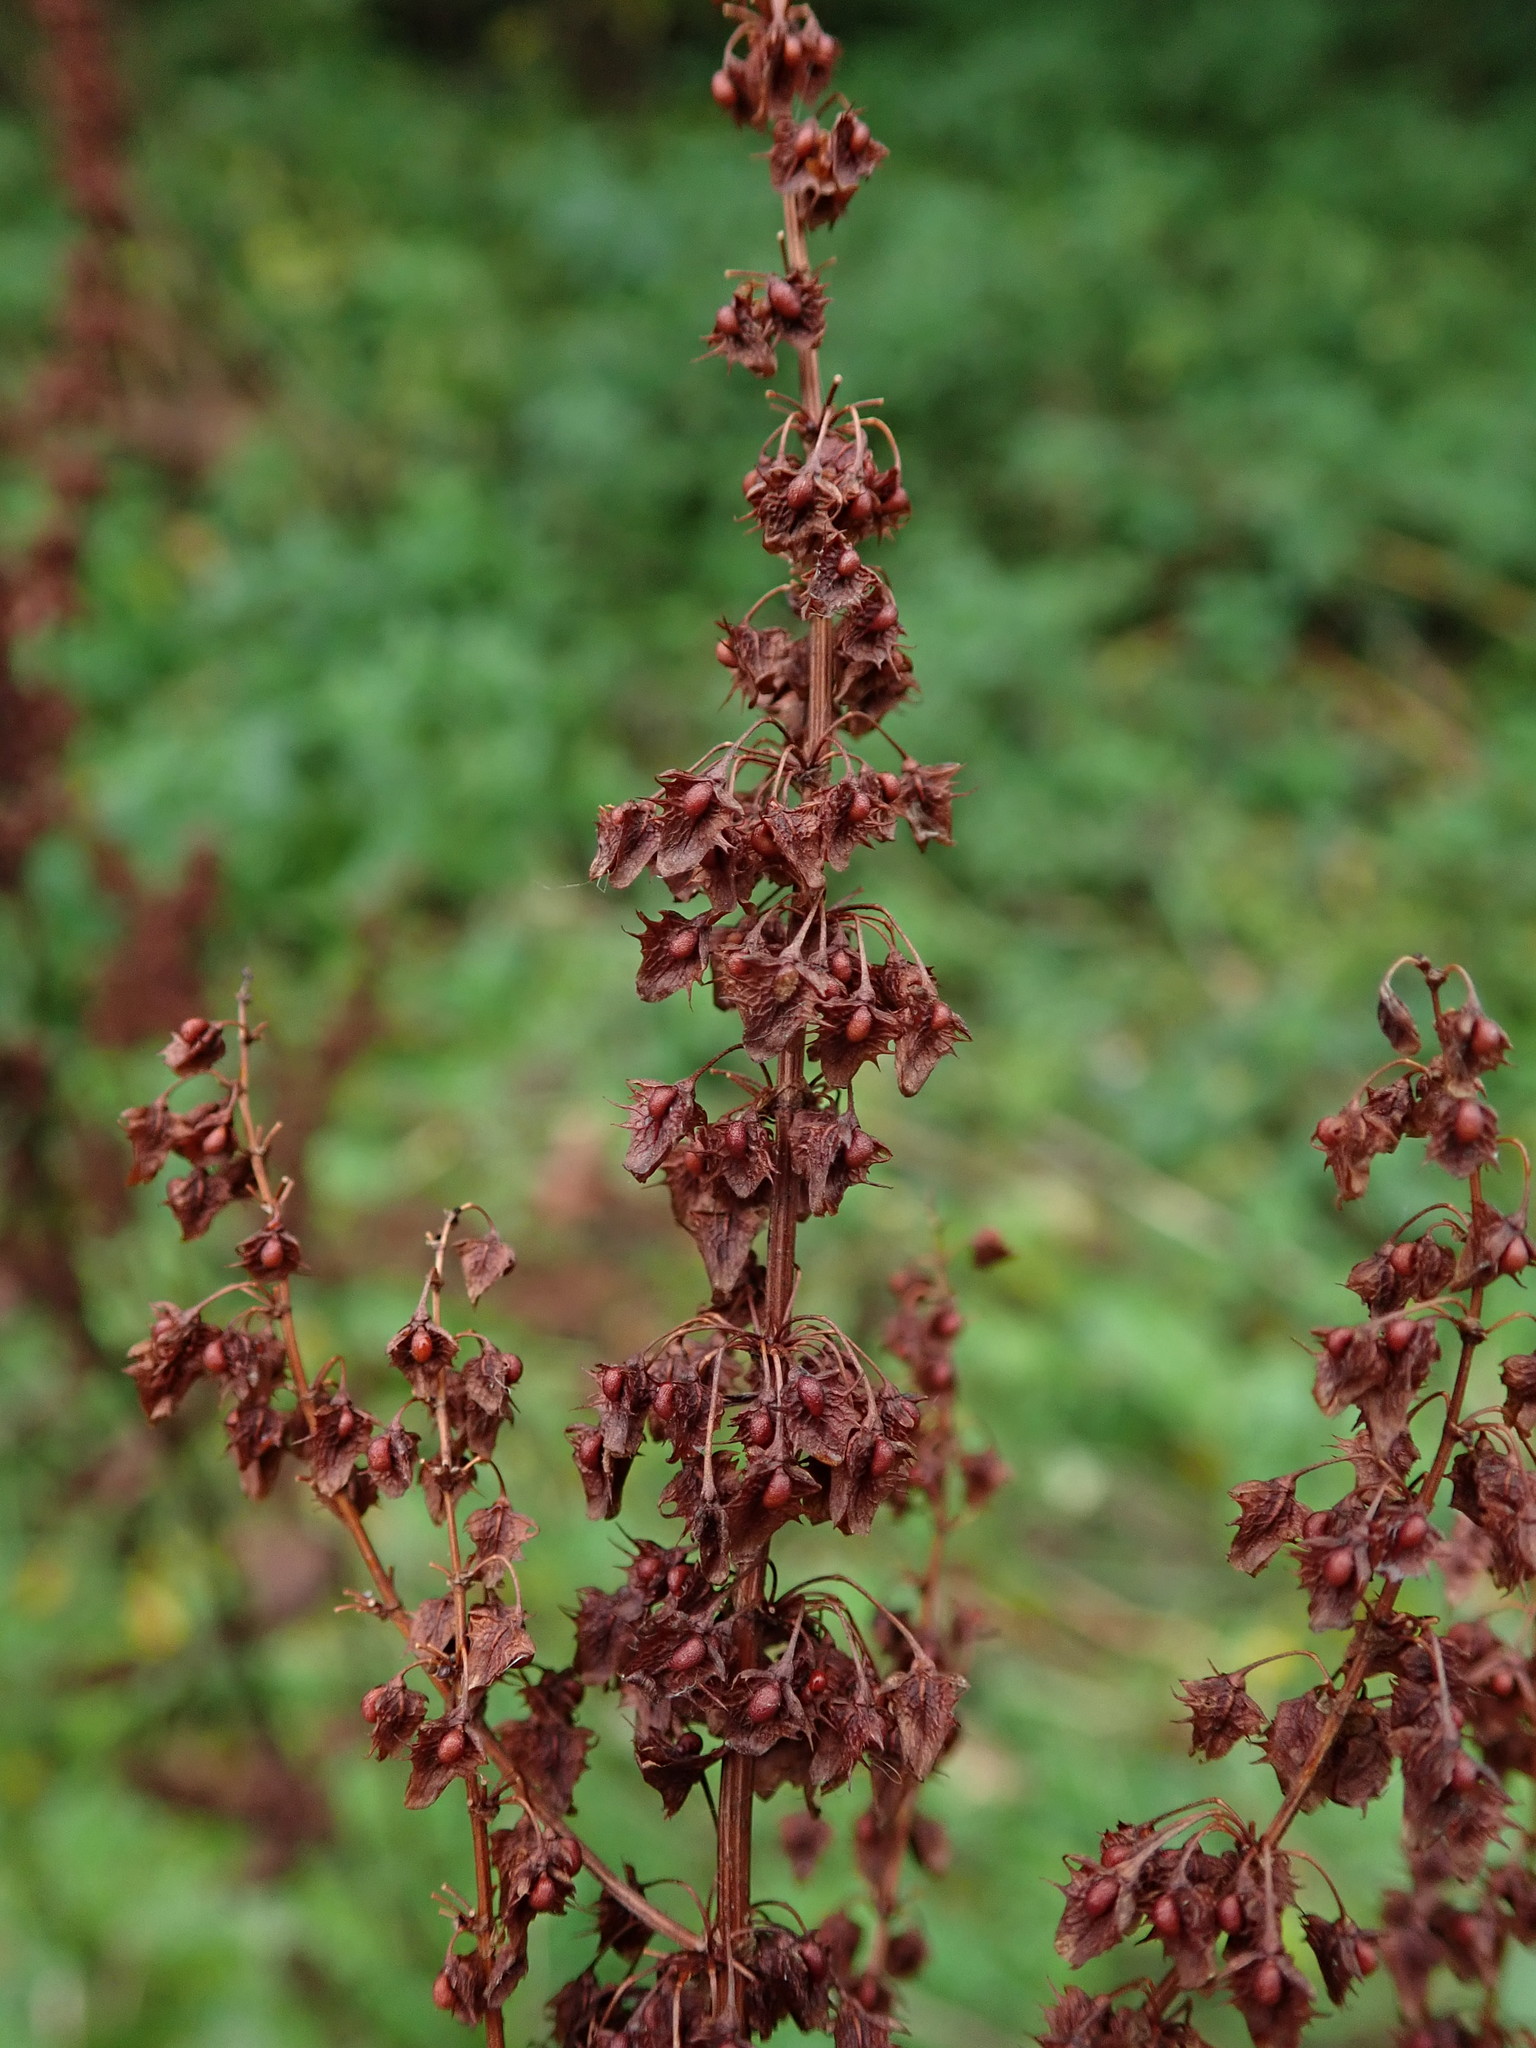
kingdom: Plantae
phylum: Tracheophyta
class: Magnoliopsida
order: Caryophyllales
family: Polygonaceae
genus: Rumex
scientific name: Rumex obtusifolius
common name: Bitter dock
